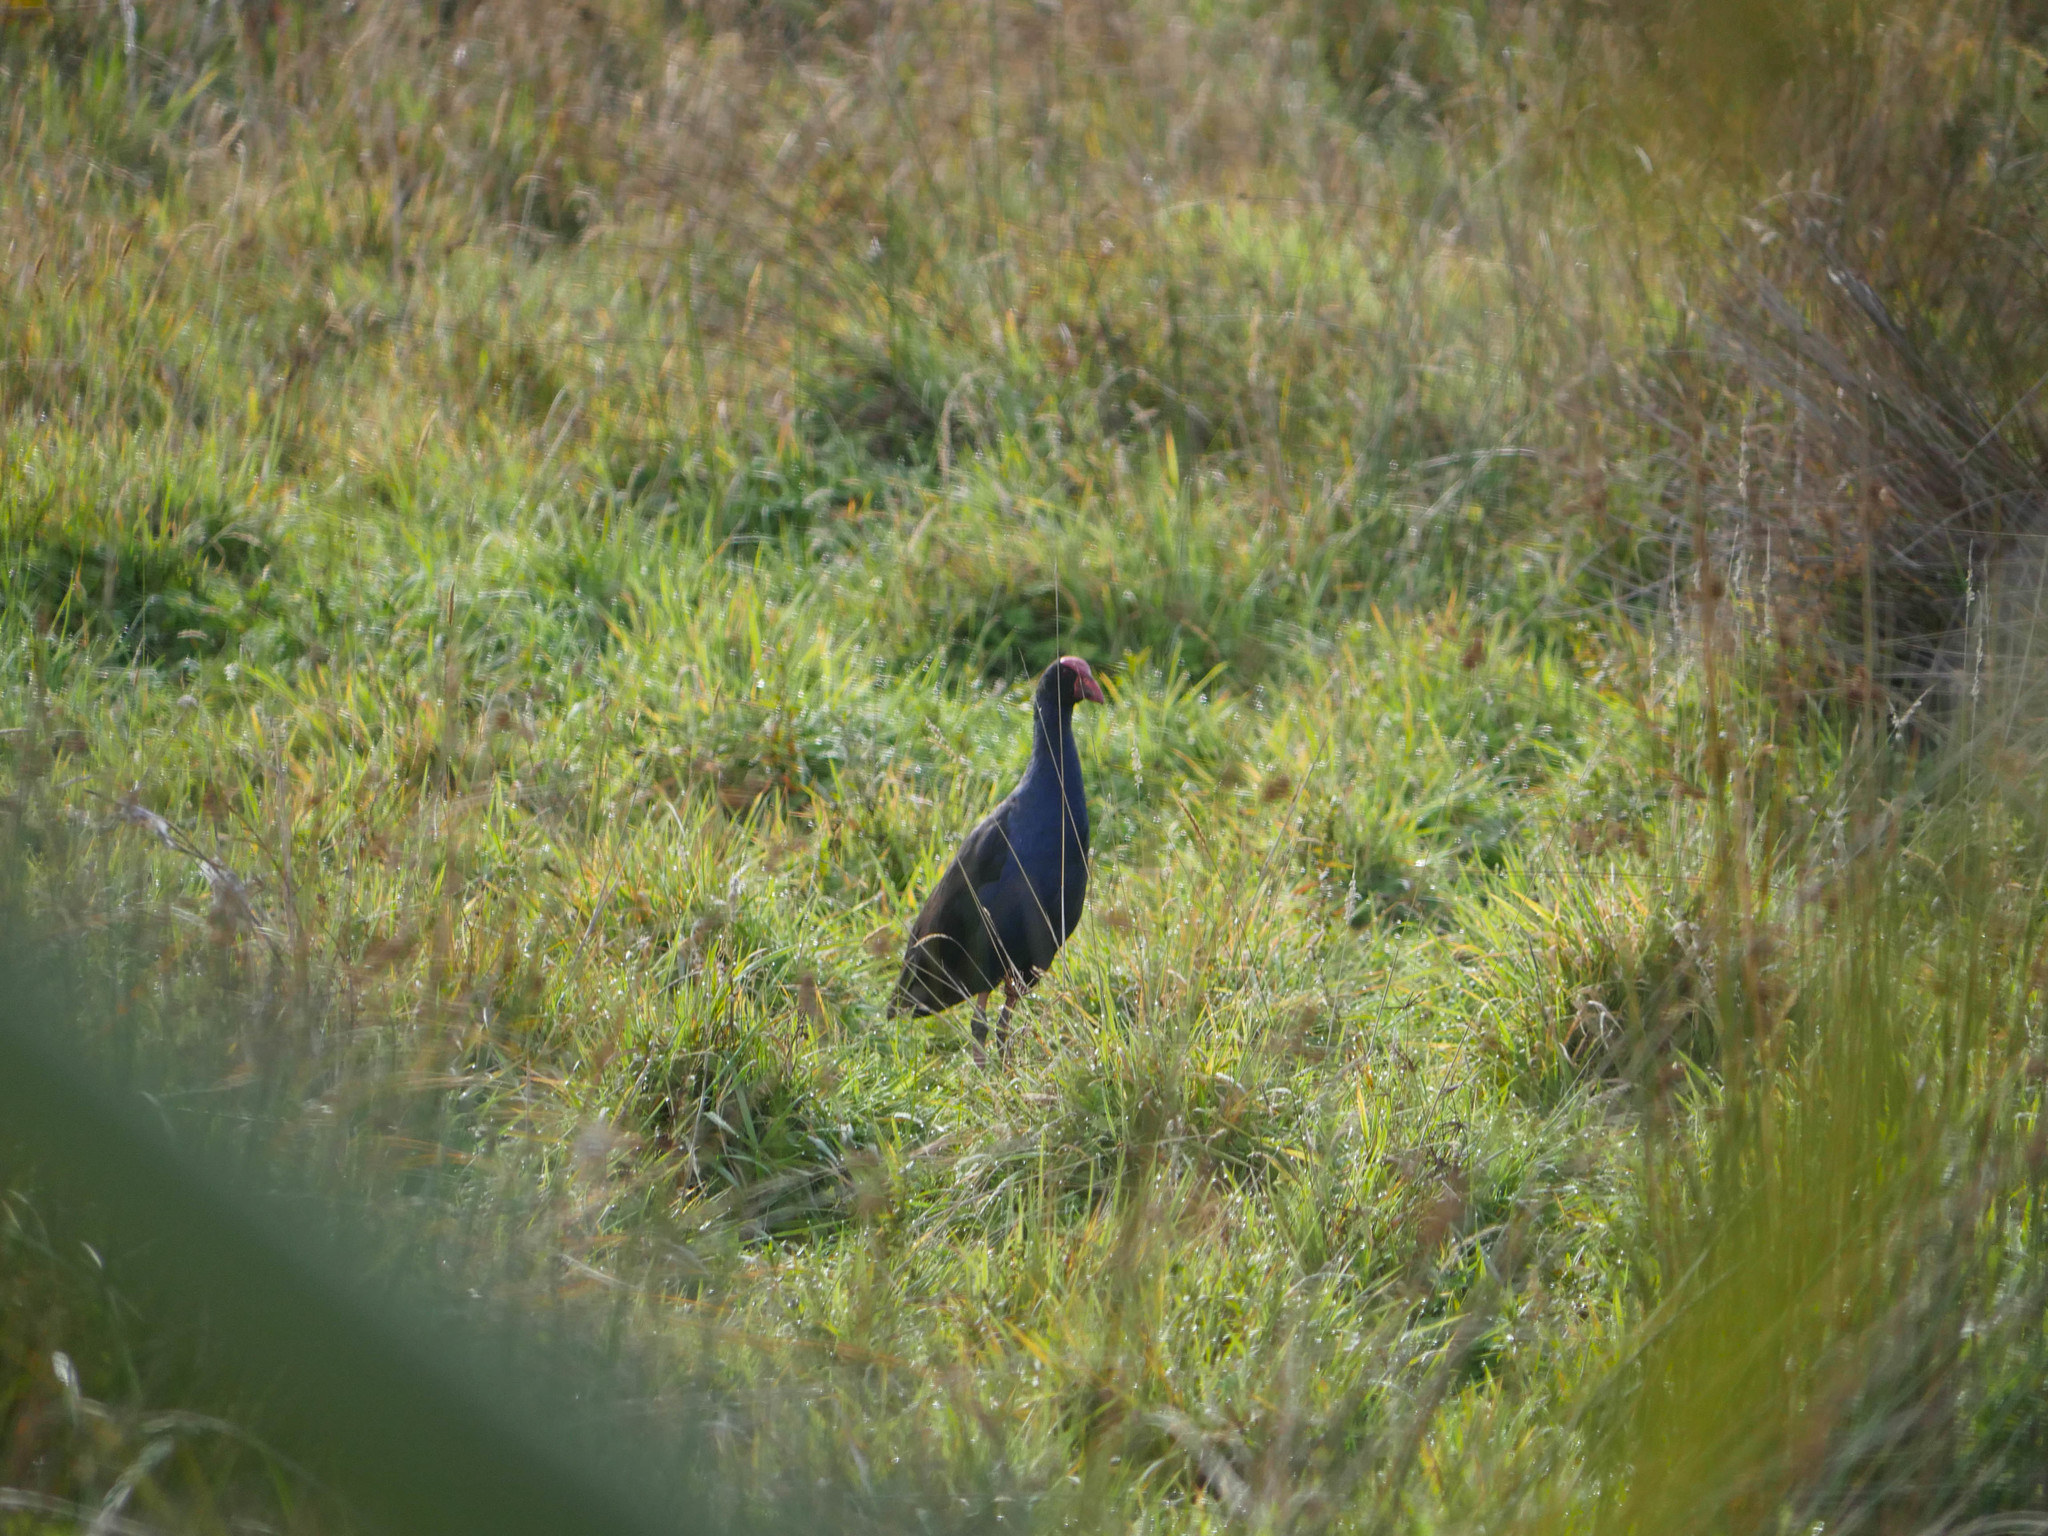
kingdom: Animalia
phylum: Chordata
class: Aves
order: Gruiformes
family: Rallidae
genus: Porphyrio
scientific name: Porphyrio melanotus
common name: Australasian swamphen
